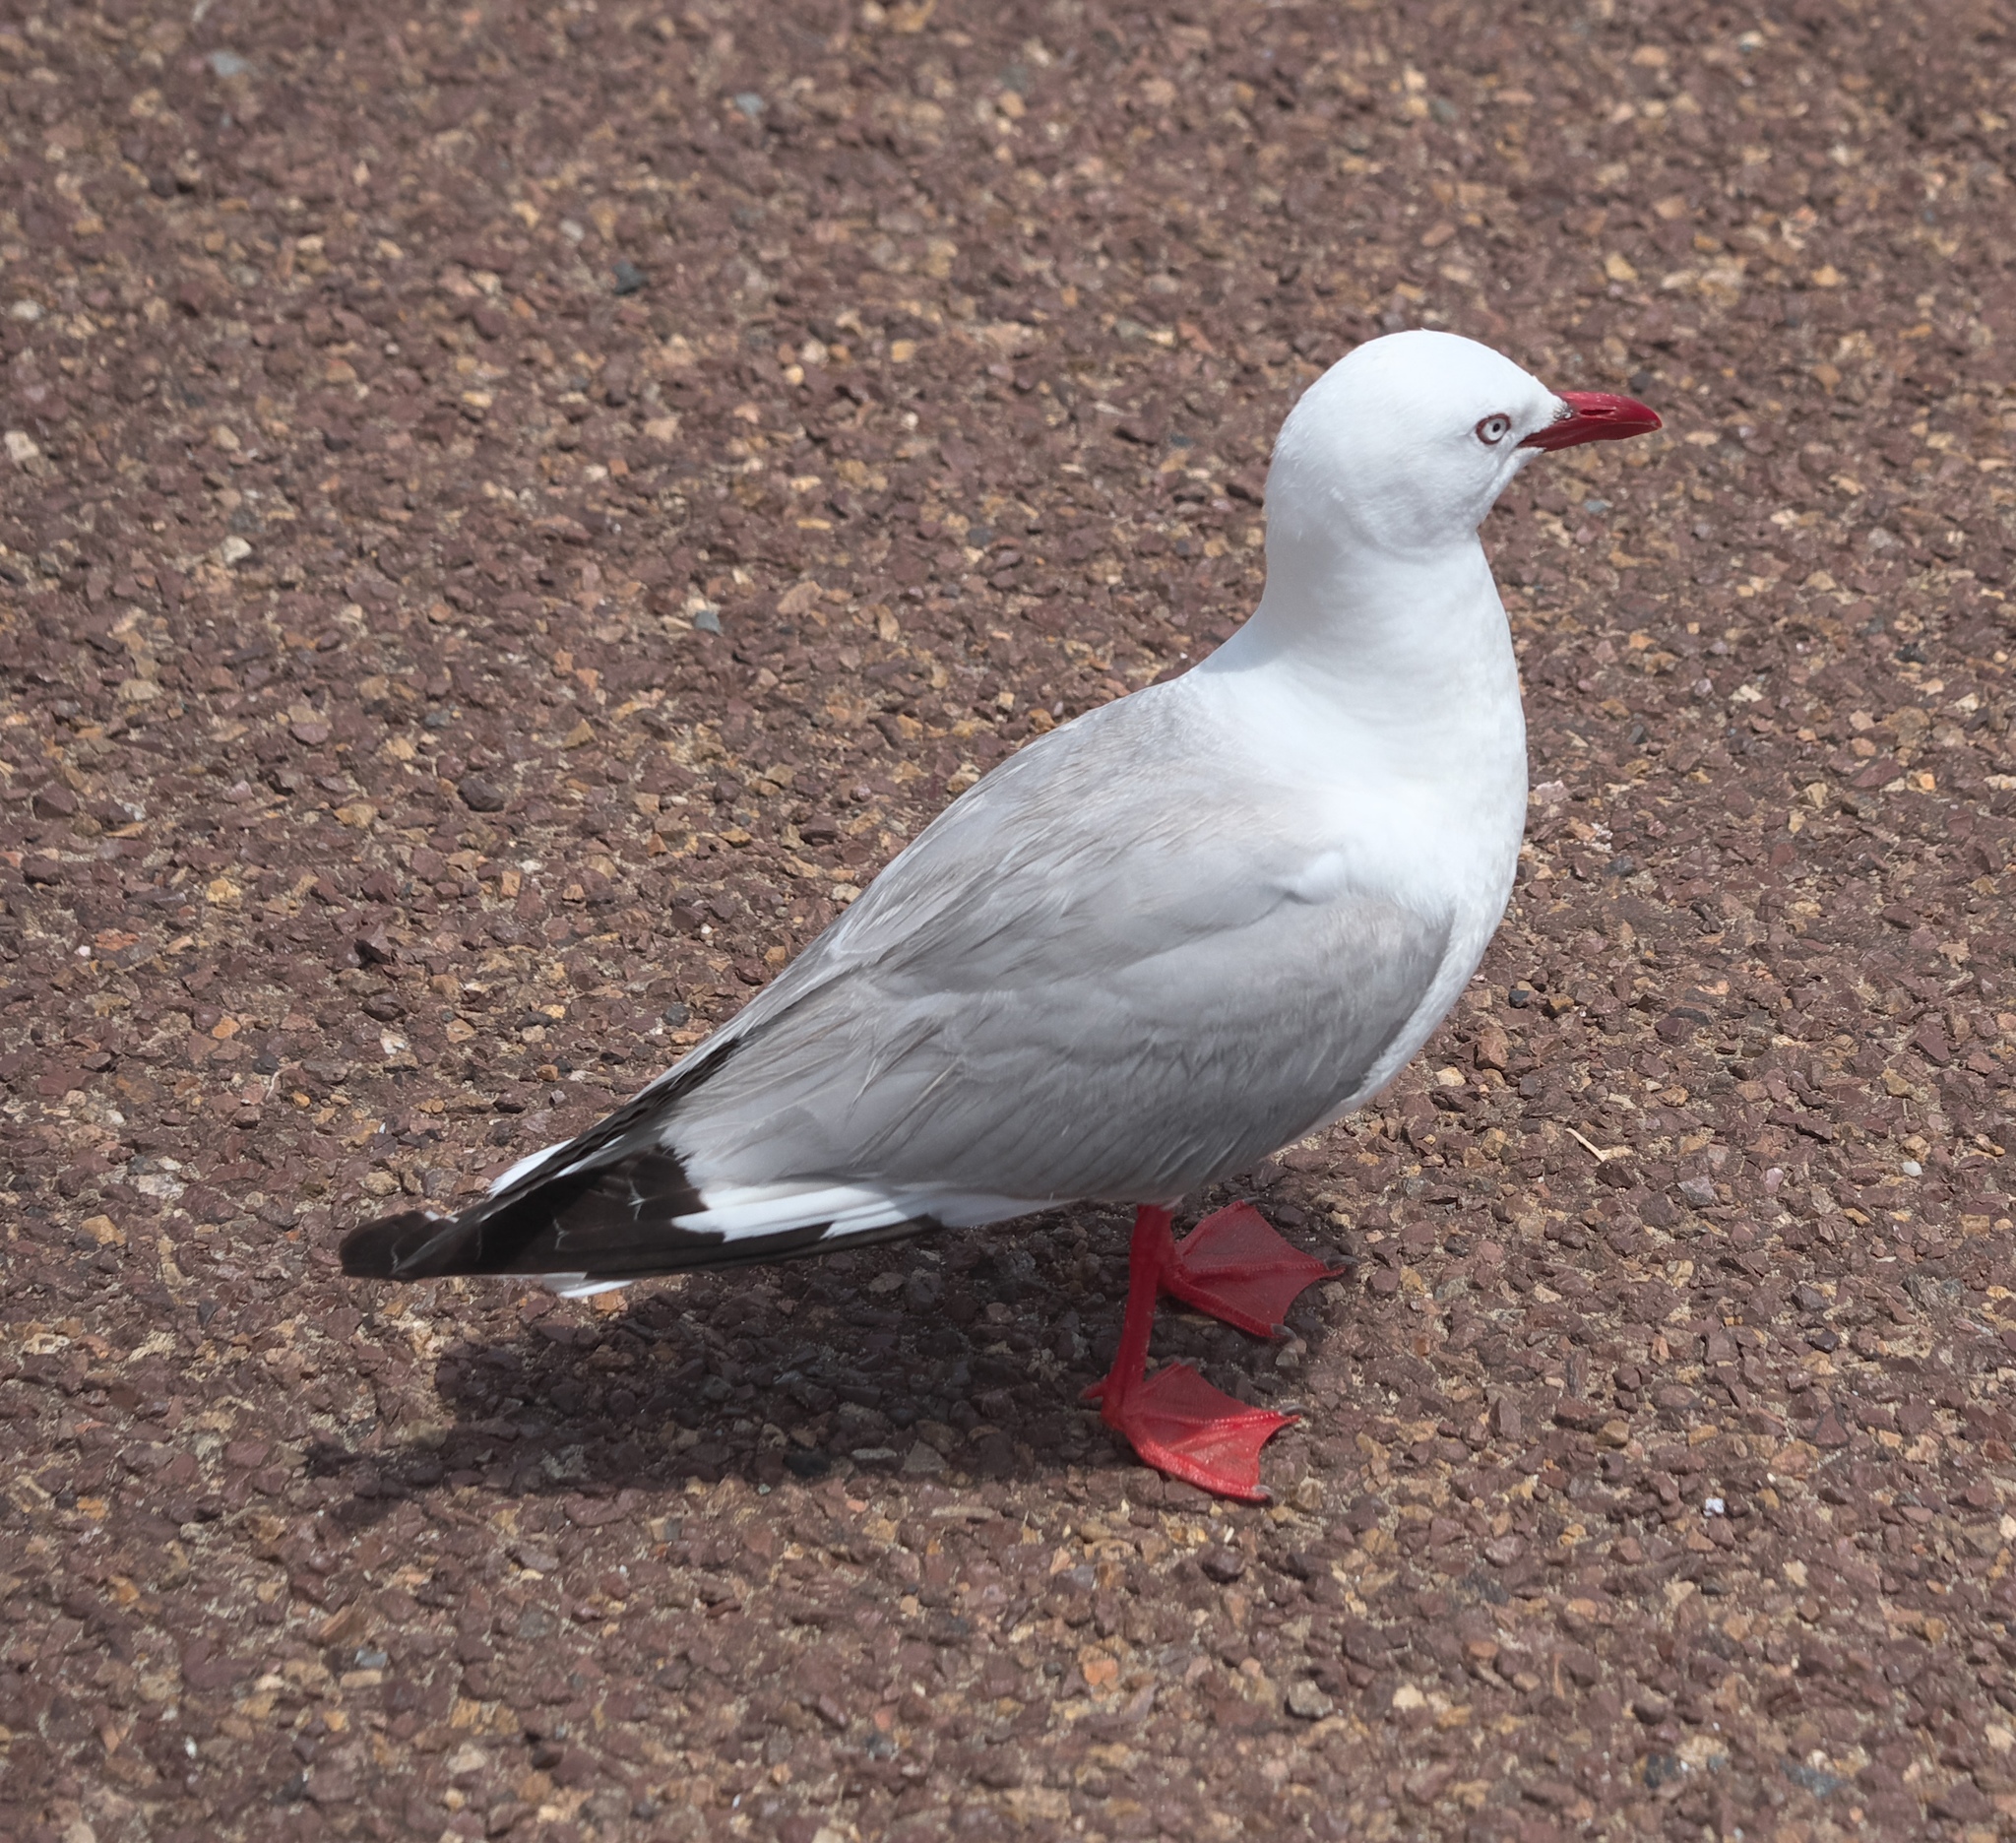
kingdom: Animalia
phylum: Chordata
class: Aves
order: Charadriiformes
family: Laridae
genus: Chroicocephalus
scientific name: Chroicocephalus novaehollandiae
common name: Silver gull
